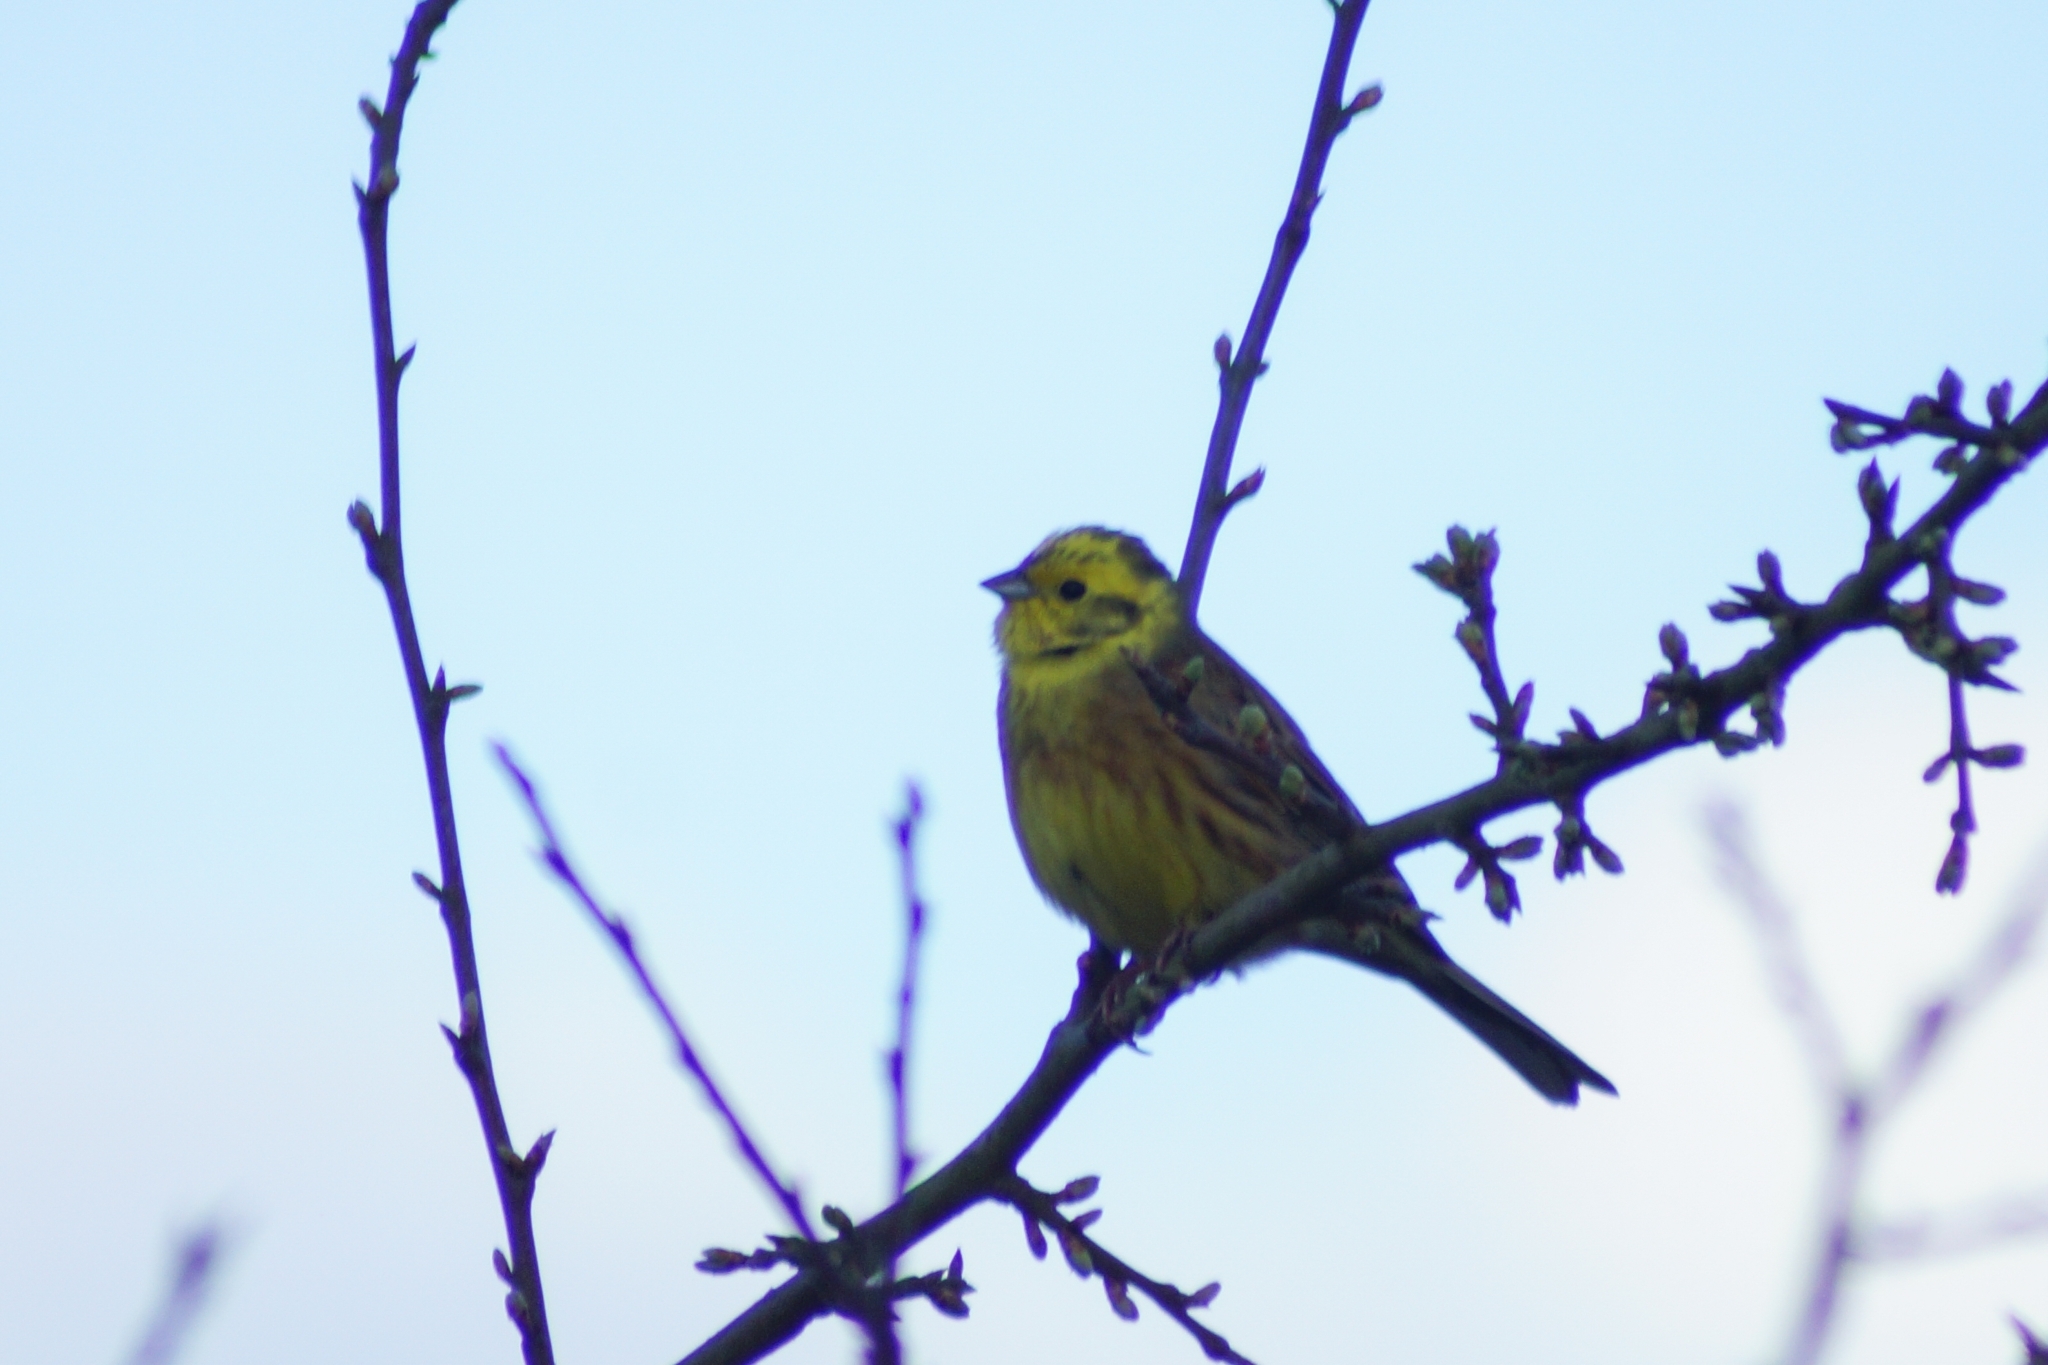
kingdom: Animalia
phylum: Chordata
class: Aves
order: Passeriformes
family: Emberizidae
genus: Emberiza
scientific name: Emberiza citrinella
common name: Yellowhammer
